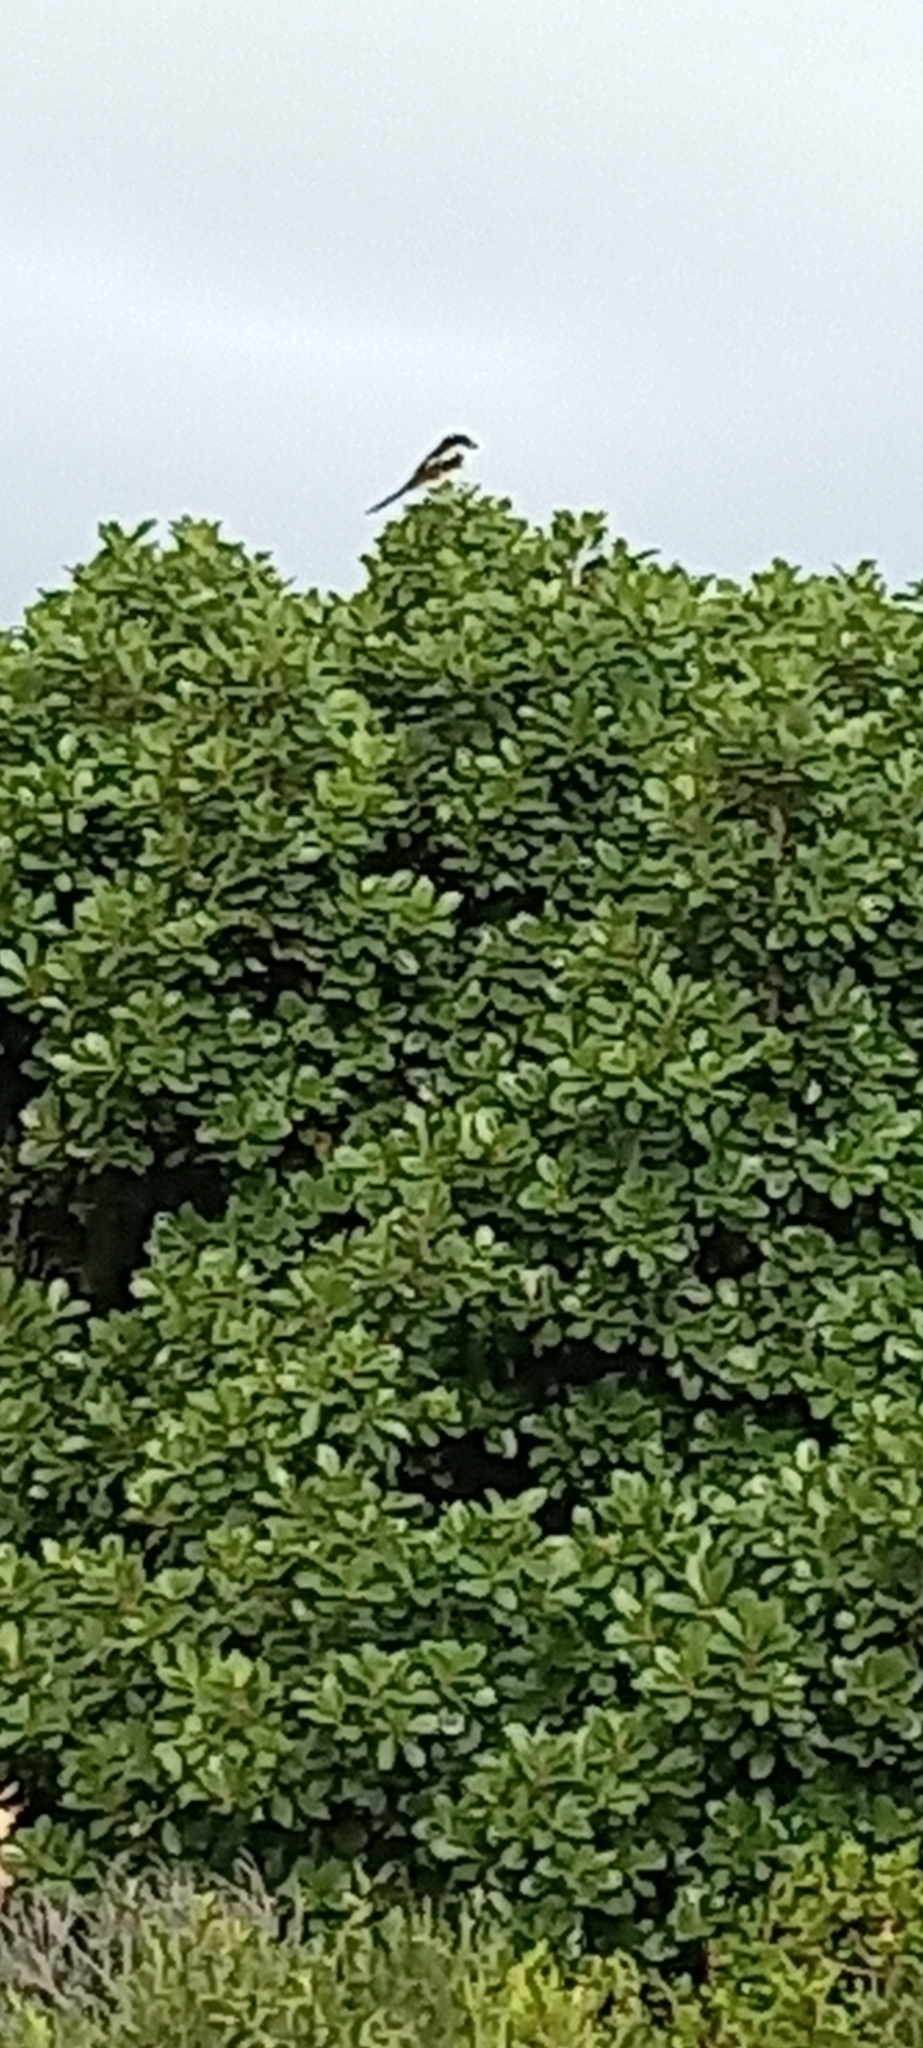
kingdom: Animalia
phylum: Chordata
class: Aves
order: Passeriformes
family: Laniidae
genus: Lanius
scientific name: Lanius collaris
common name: Southern fiscal
